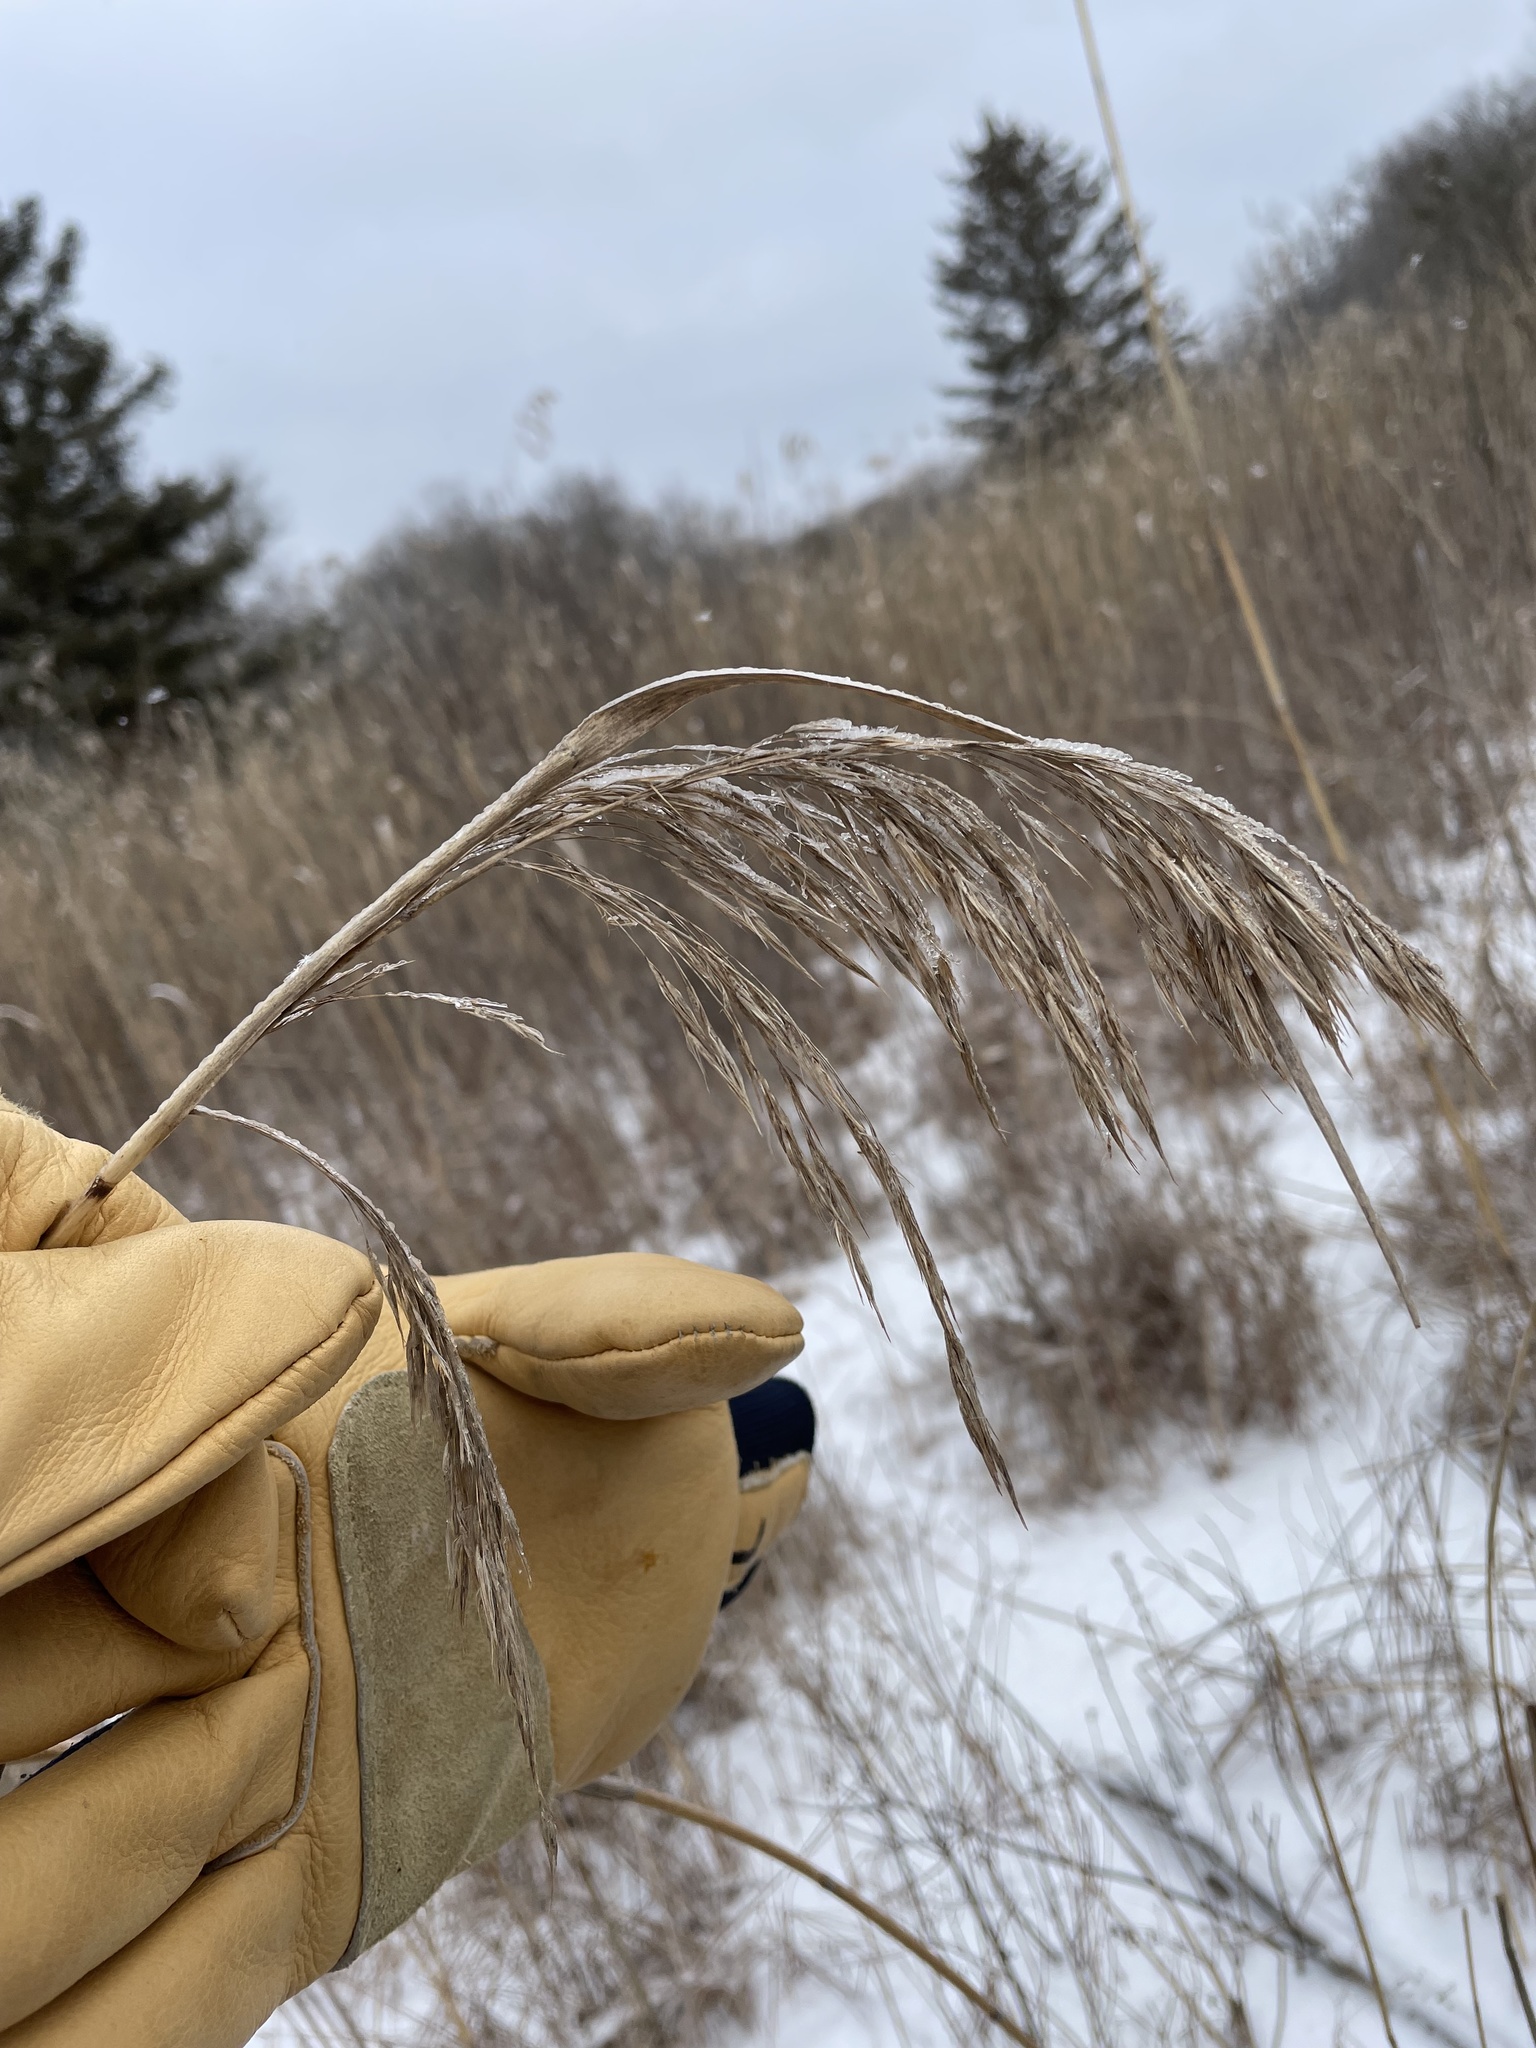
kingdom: Plantae
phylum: Tracheophyta
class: Liliopsida
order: Poales
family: Poaceae
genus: Phragmites
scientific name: Phragmites australis
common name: Common reed
